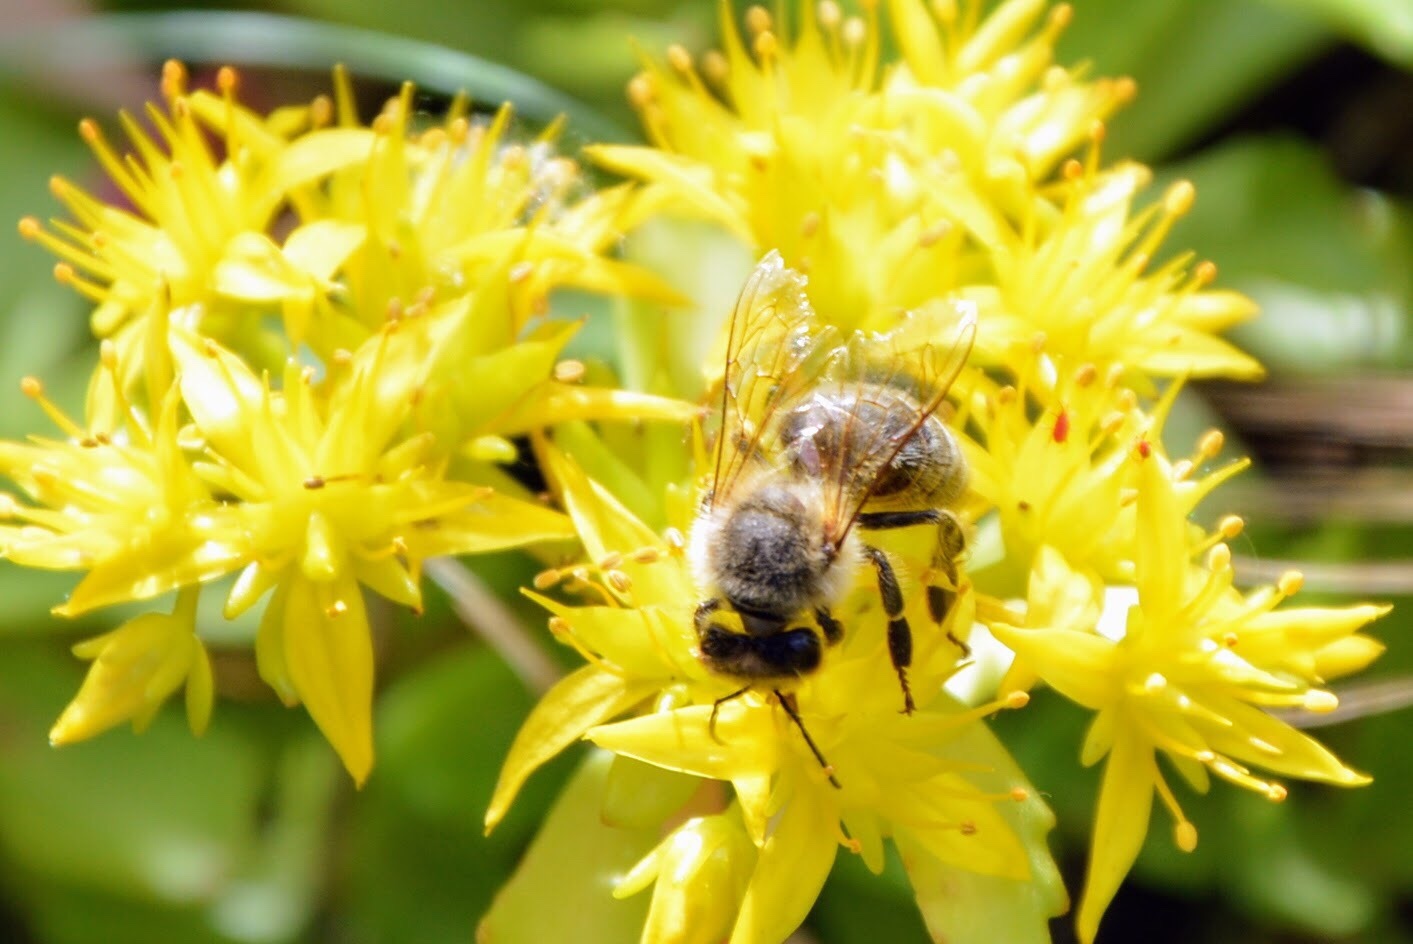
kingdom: Animalia
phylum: Arthropoda
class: Insecta
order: Hymenoptera
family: Apidae
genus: Apis
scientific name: Apis mellifera
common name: Honey bee
